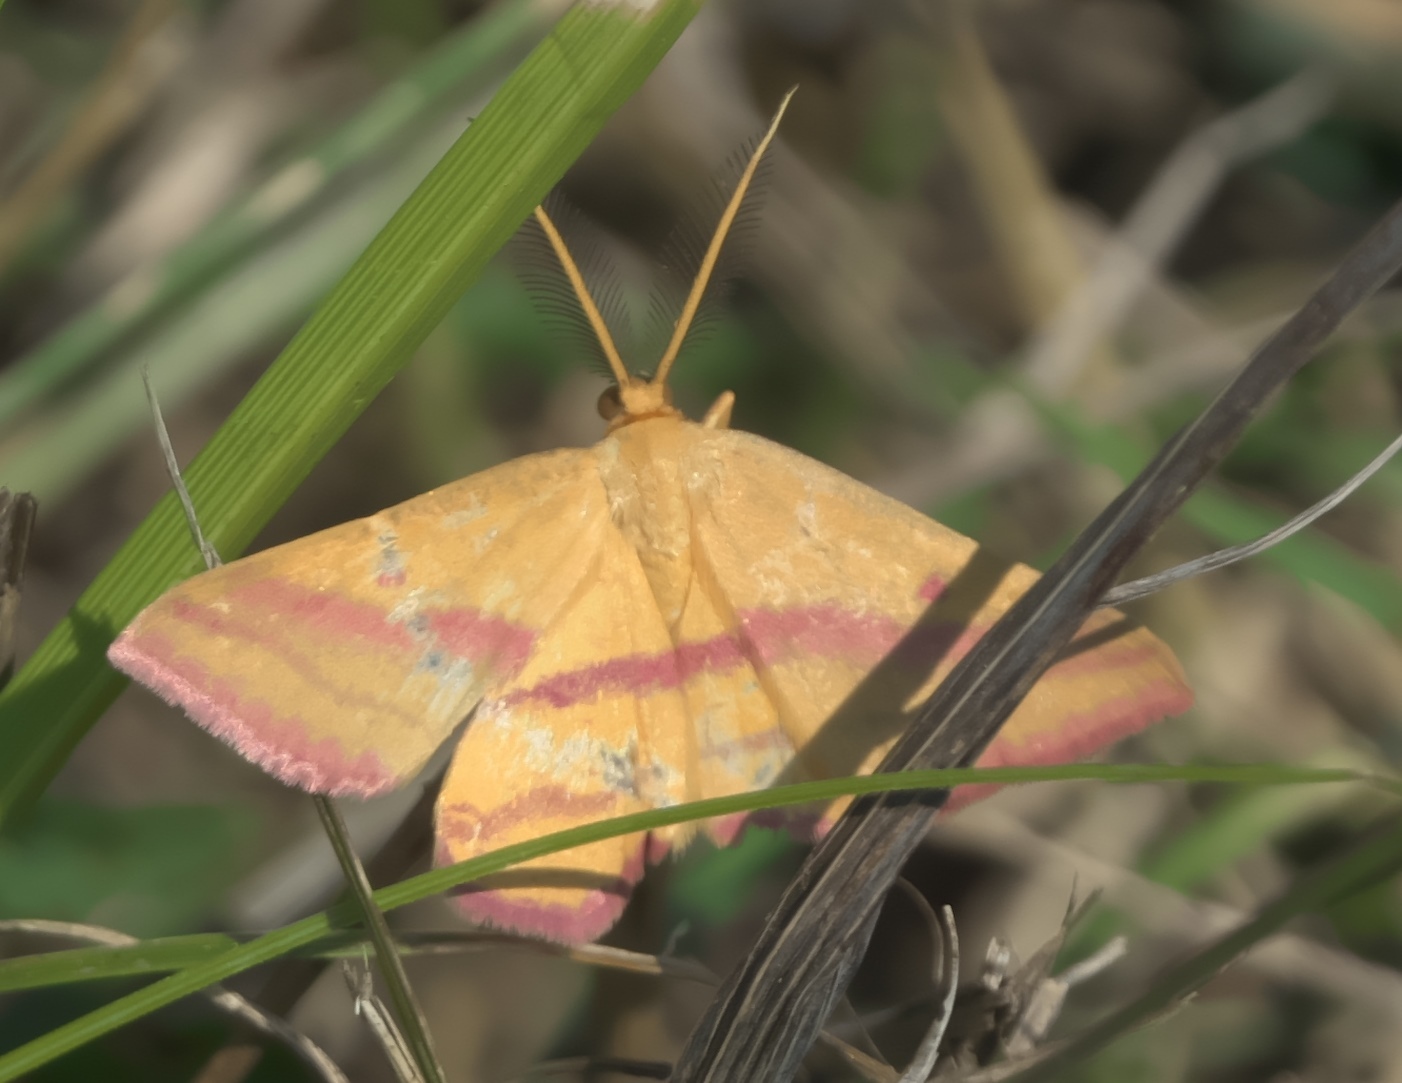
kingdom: Animalia
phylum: Arthropoda
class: Insecta
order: Lepidoptera
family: Geometridae
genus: Haematopis
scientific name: Haematopis grataria
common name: Chickweed geometer
